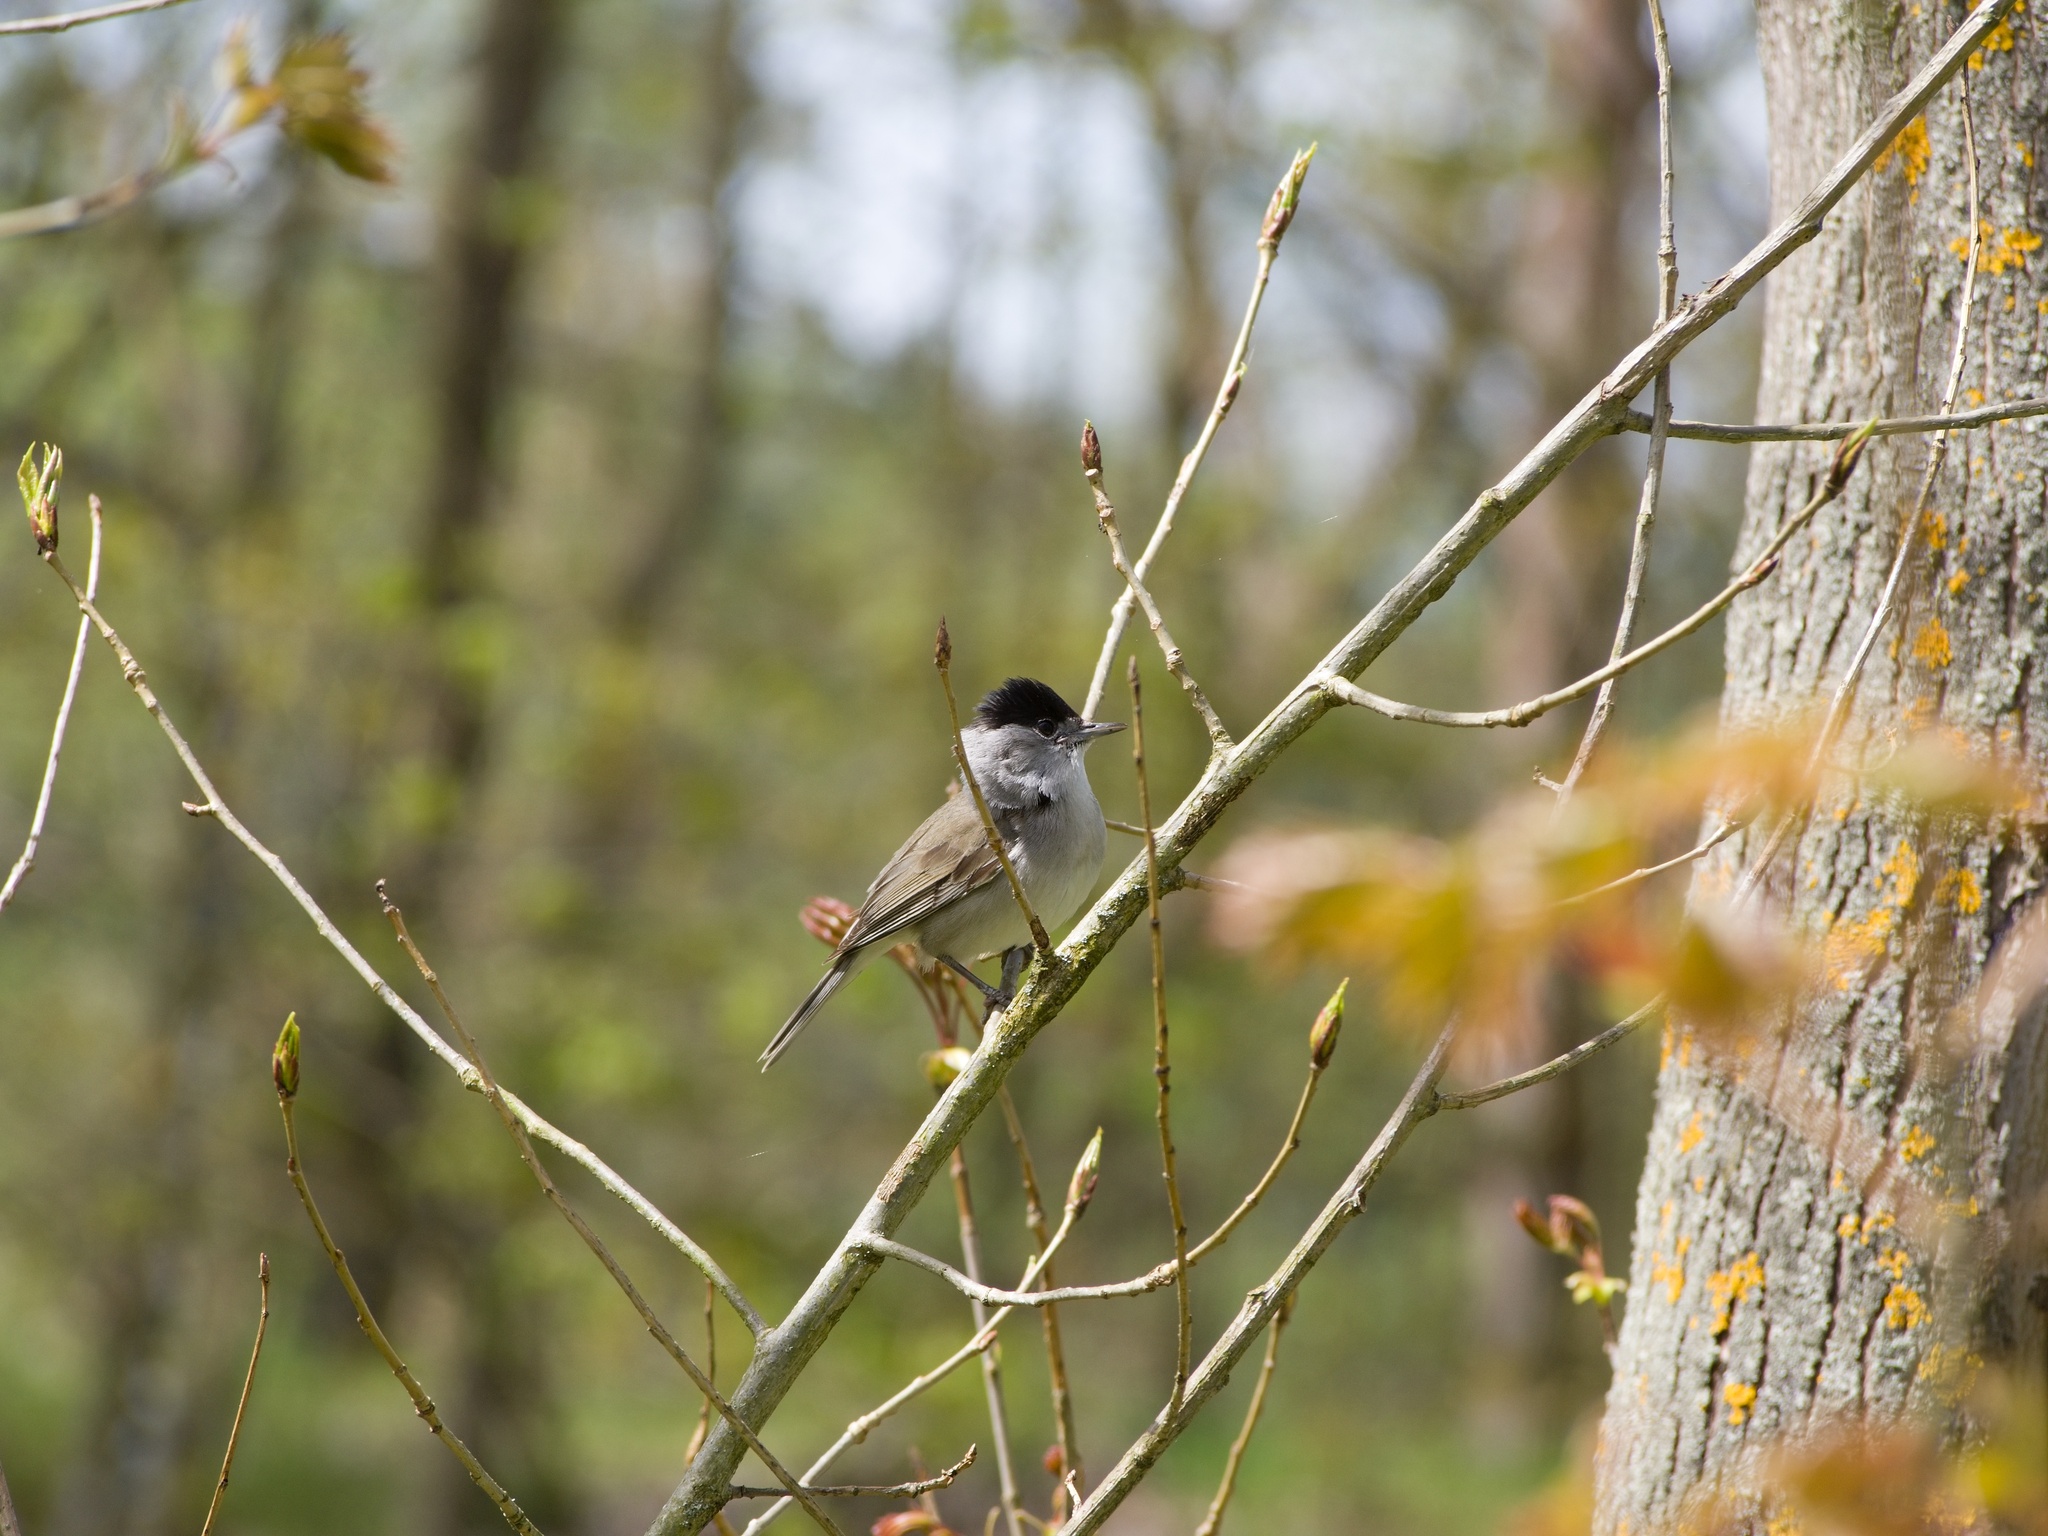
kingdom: Animalia
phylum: Chordata
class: Aves
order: Passeriformes
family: Sylviidae
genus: Sylvia
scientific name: Sylvia atricapilla
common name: Eurasian blackcap
